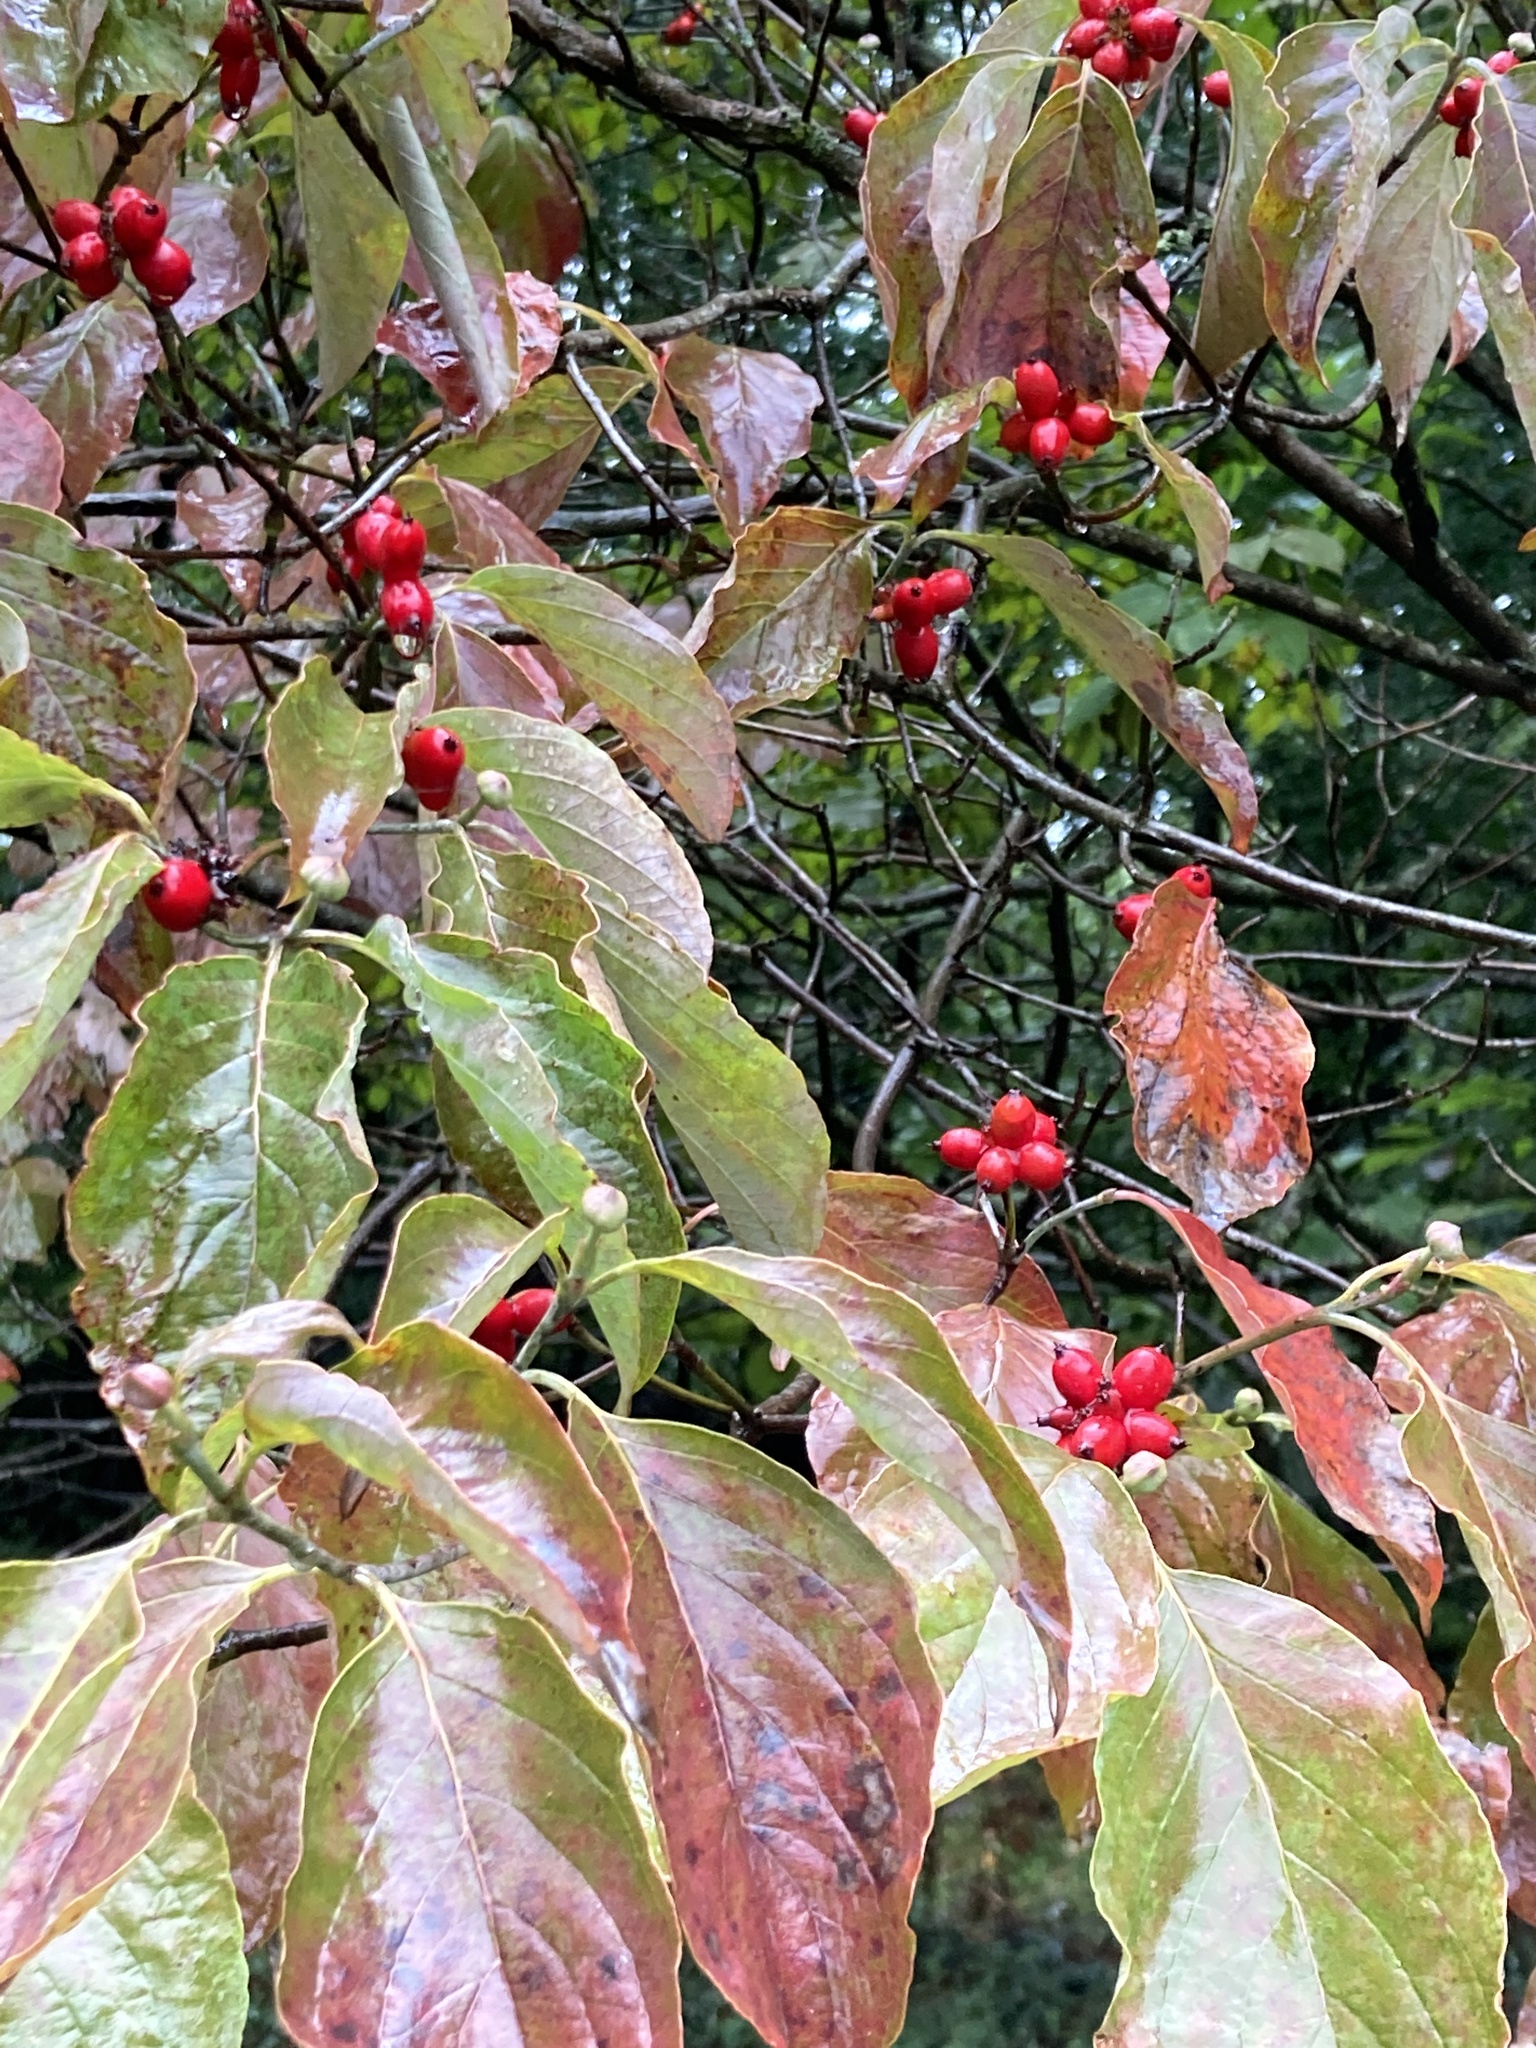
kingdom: Plantae
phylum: Tracheophyta
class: Magnoliopsida
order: Cornales
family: Cornaceae
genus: Cornus
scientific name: Cornus florida
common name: Flowering dogwood
